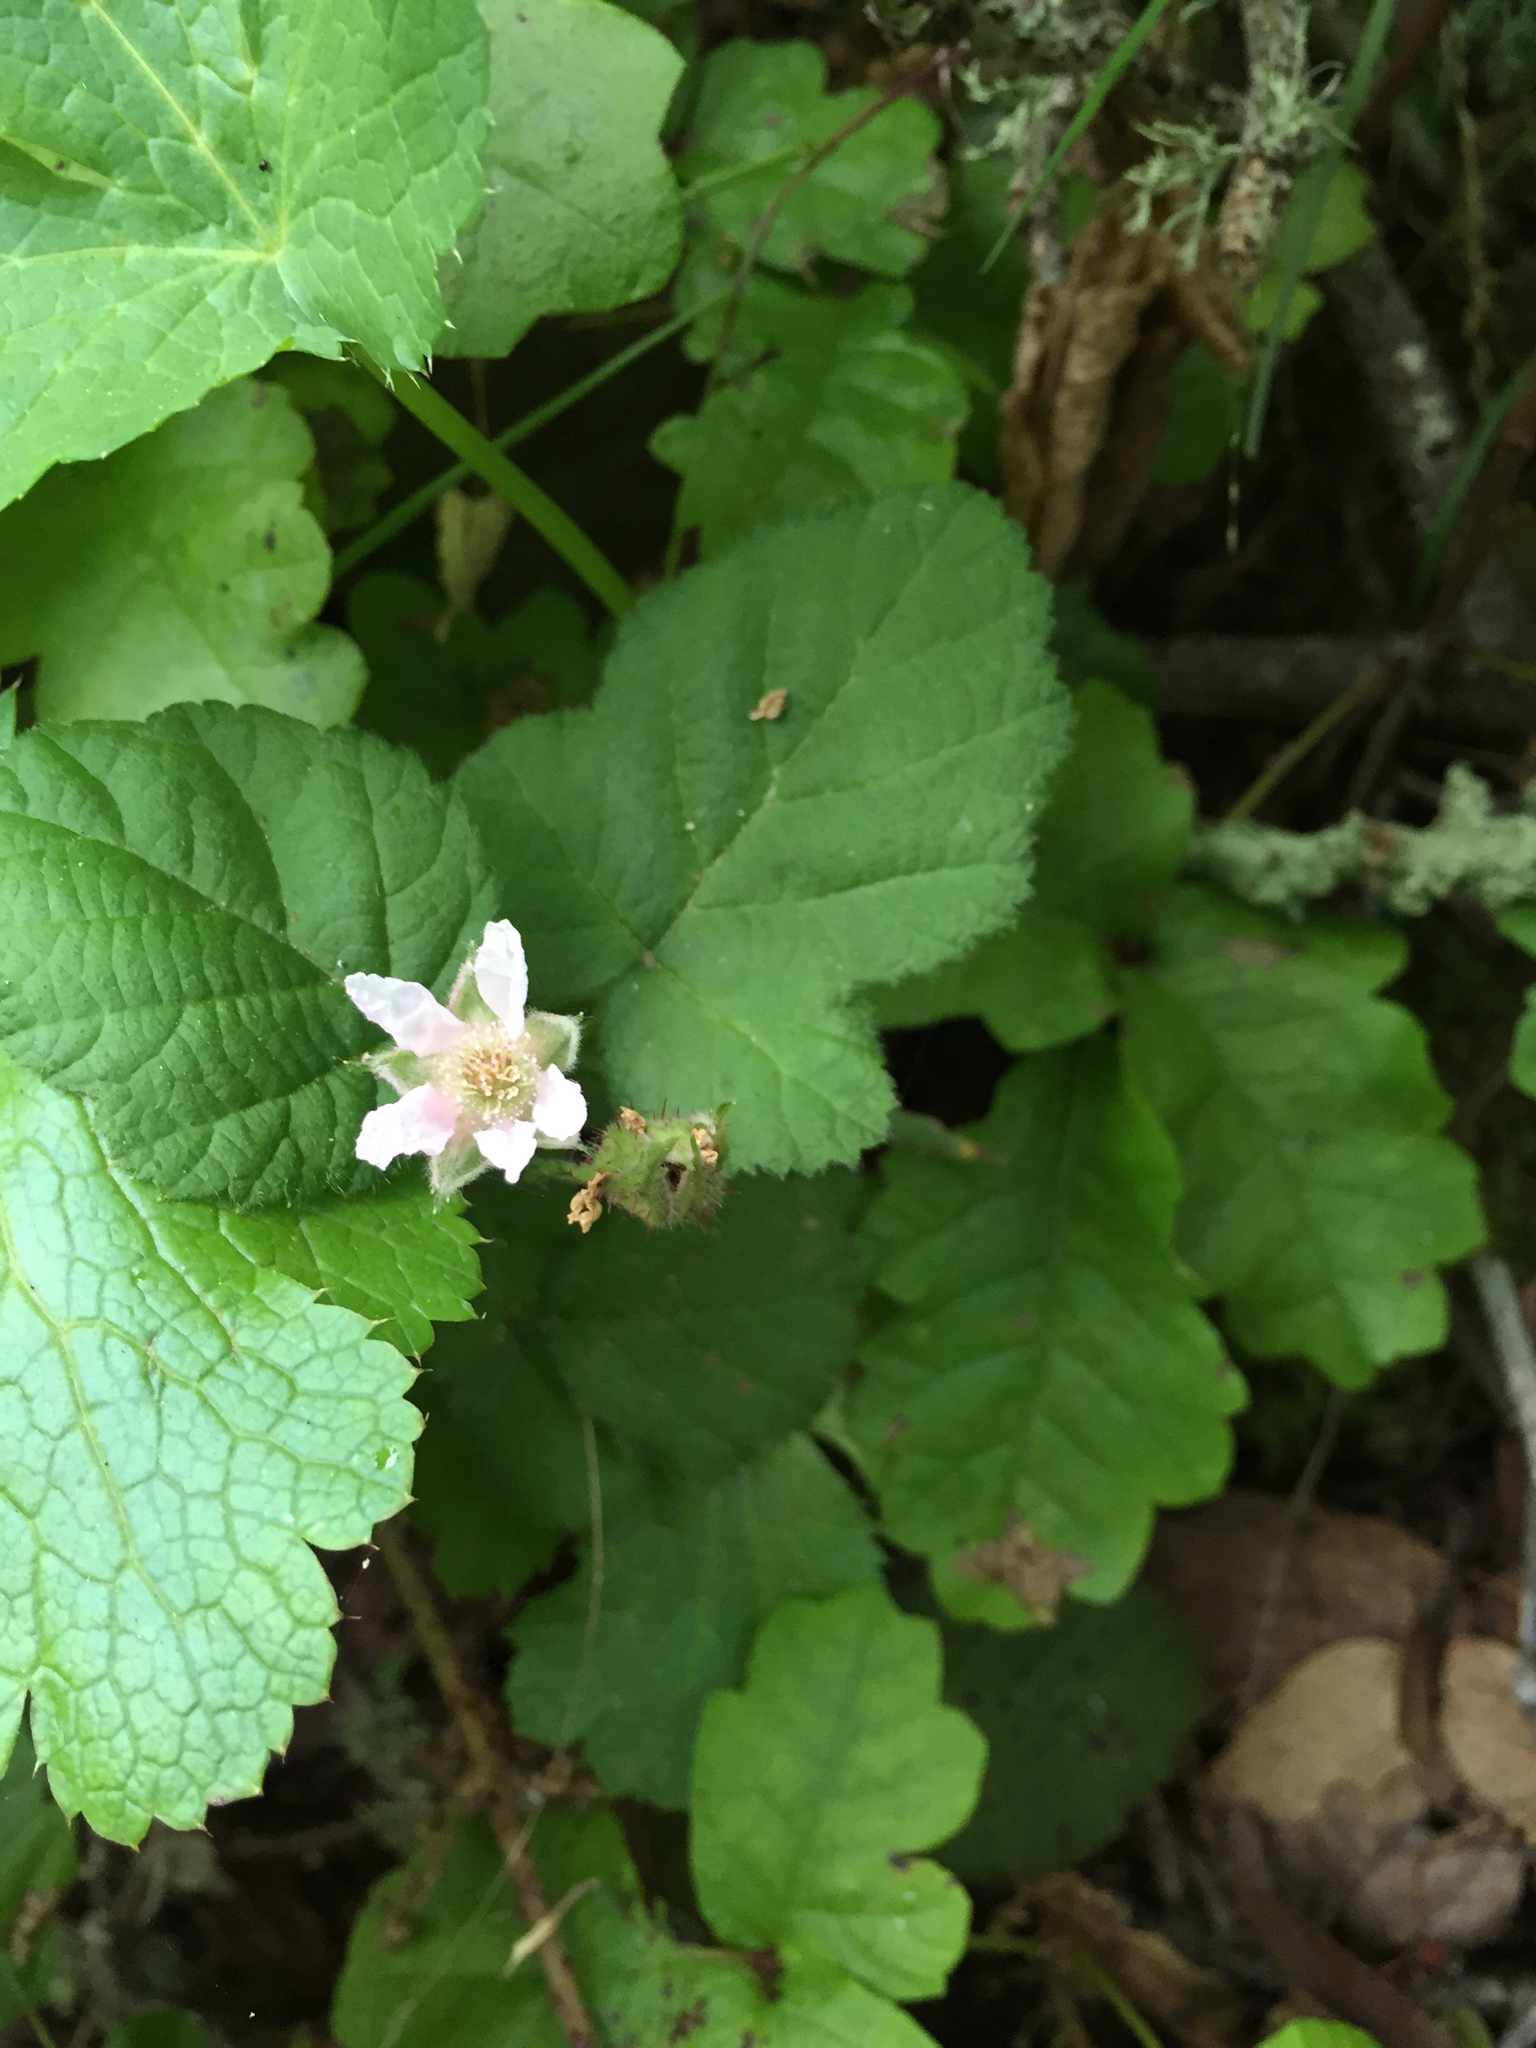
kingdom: Plantae
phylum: Tracheophyta
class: Magnoliopsida
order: Rosales
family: Rosaceae
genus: Rubus
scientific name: Rubus ursinus
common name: Pacific blackberry
